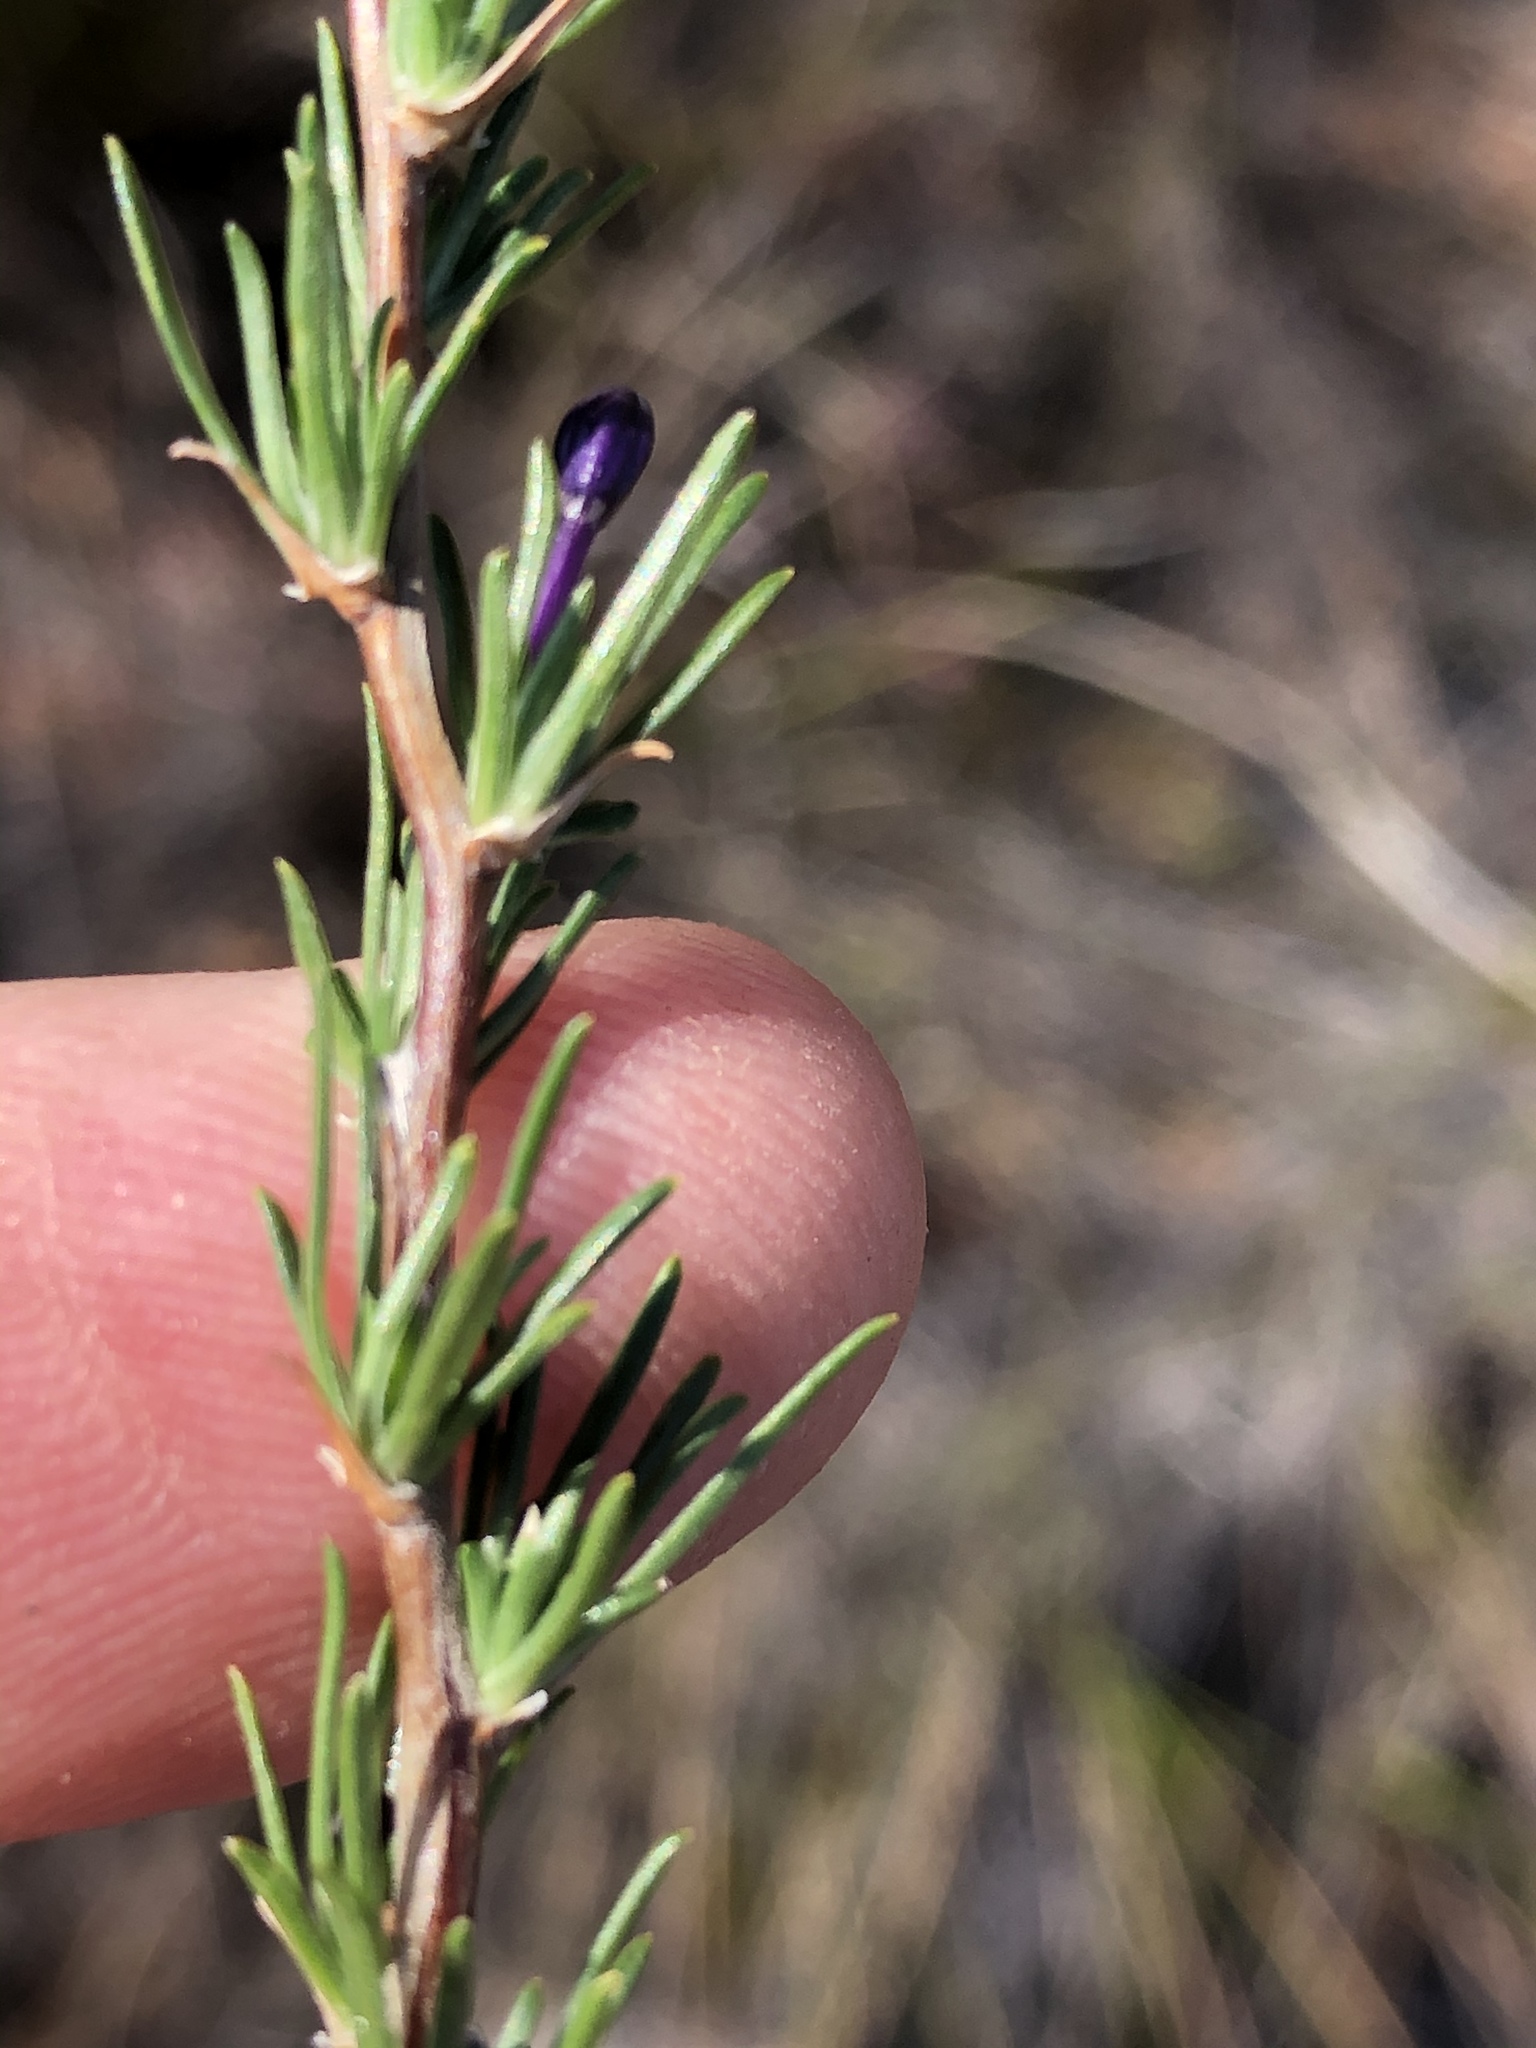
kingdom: Plantae
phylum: Tracheophyta
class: Magnoliopsida
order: Asterales
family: Campanulaceae
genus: Theilera
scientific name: Theilera guthriei
